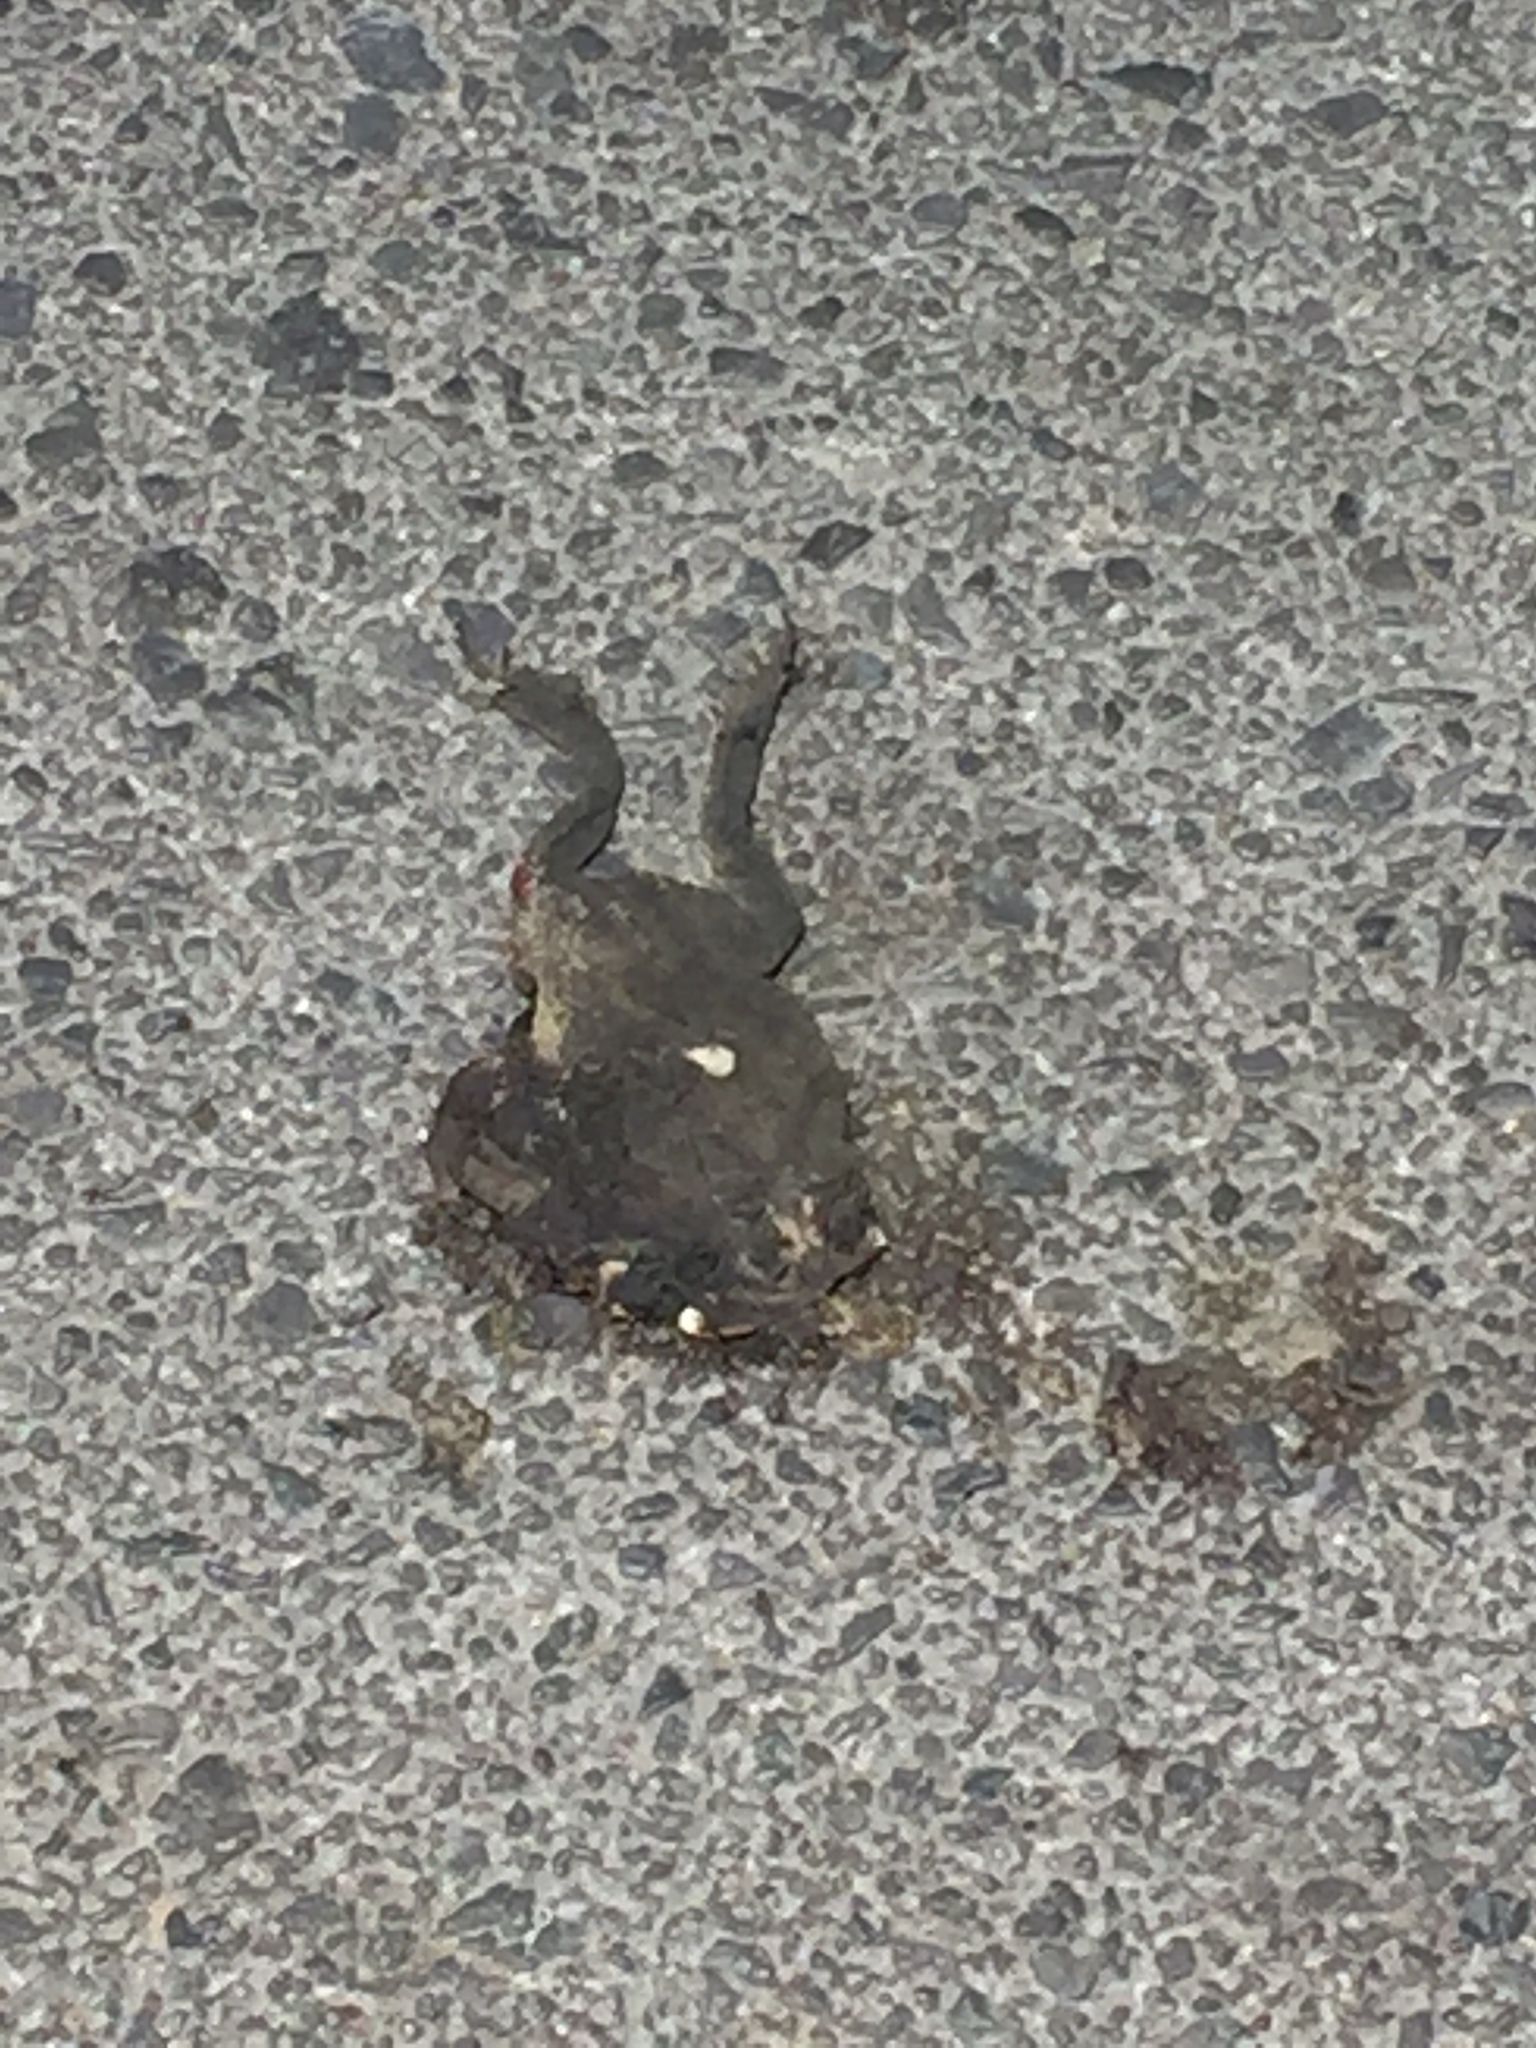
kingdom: Animalia
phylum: Chordata
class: Amphibia
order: Anura
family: Bufonidae
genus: Duttaphrynus
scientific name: Duttaphrynus melanostictus
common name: Common sunda toad
